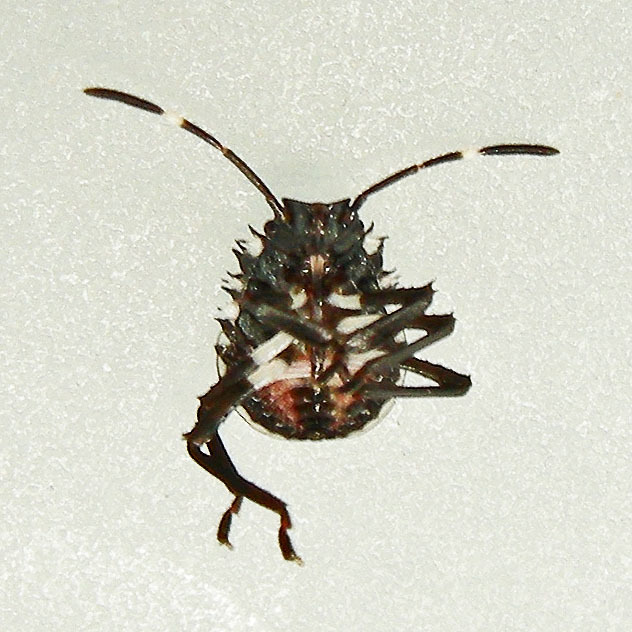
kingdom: Animalia
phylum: Arthropoda
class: Insecta
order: Hemiptera
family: Pentatomidae
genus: Halyomorpha
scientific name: Halyomorpha halys
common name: Brown marmorated stink bug
